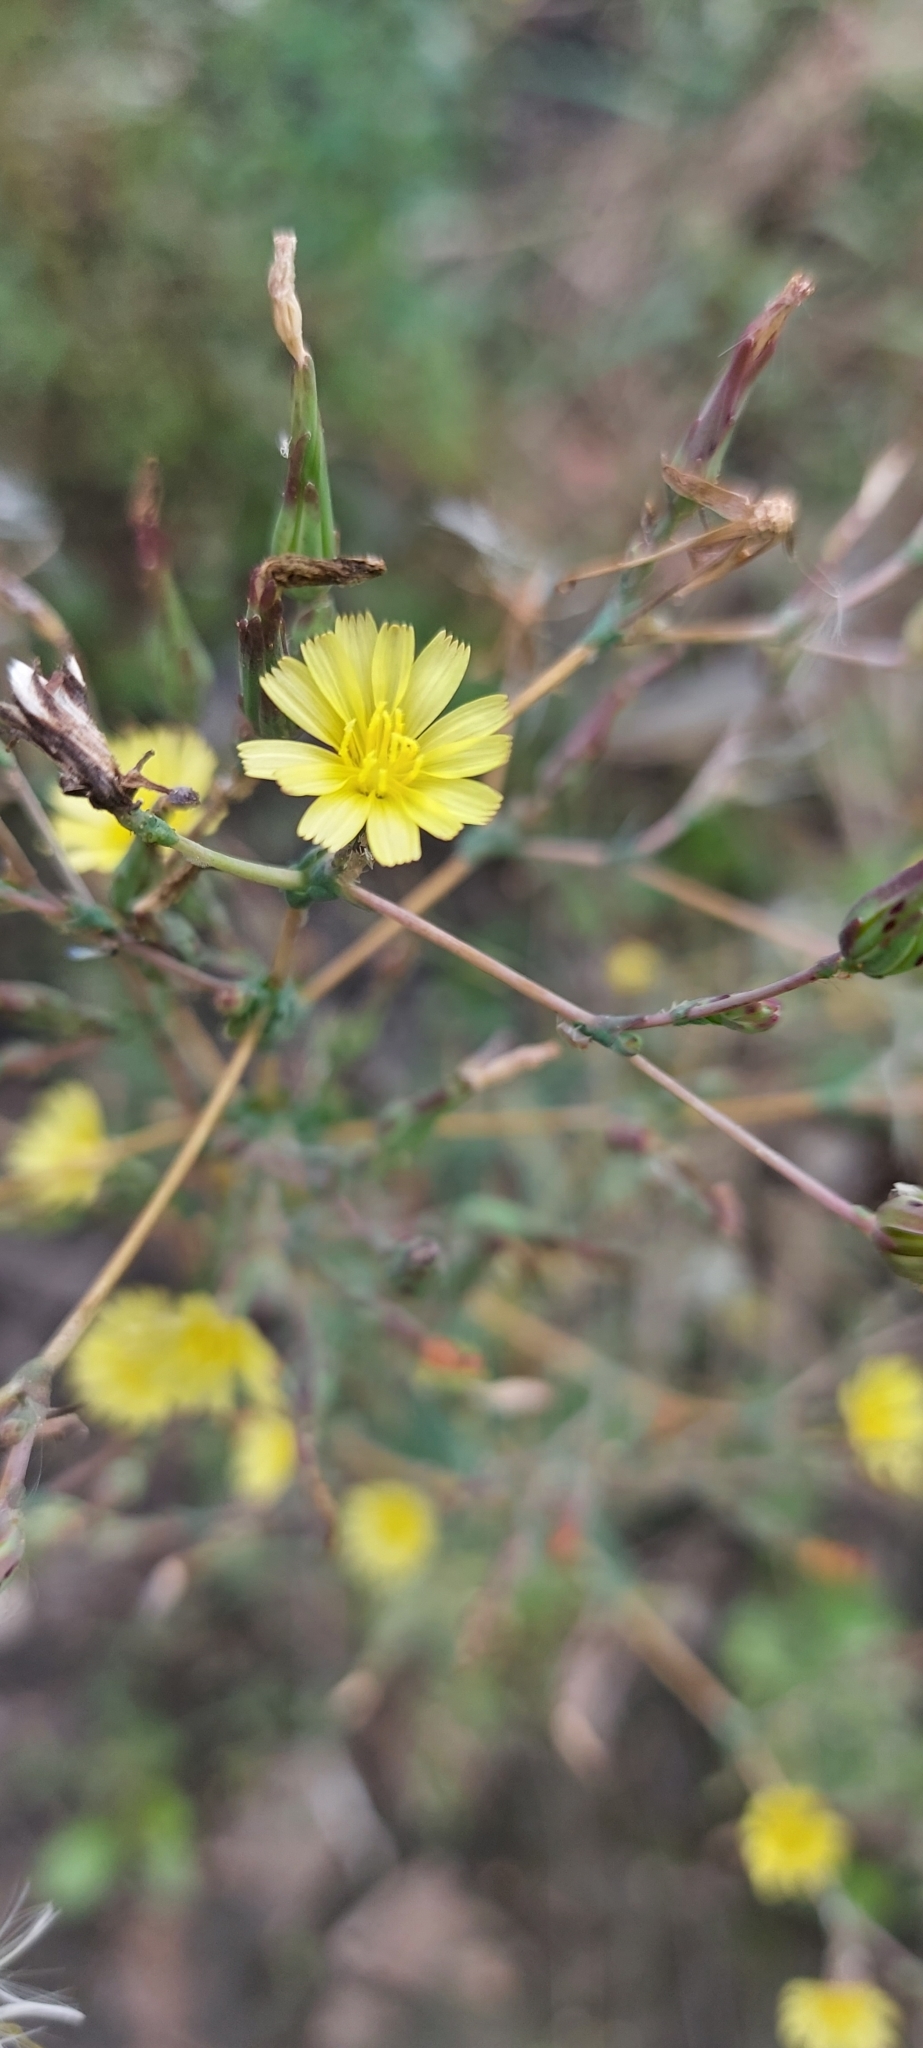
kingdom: Plantae
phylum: Tracheophyta
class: Magnoliopsida
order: Asterales
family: Asteraceae
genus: Lactuca
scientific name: Lactuca serriola
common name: Prickly lettuce
